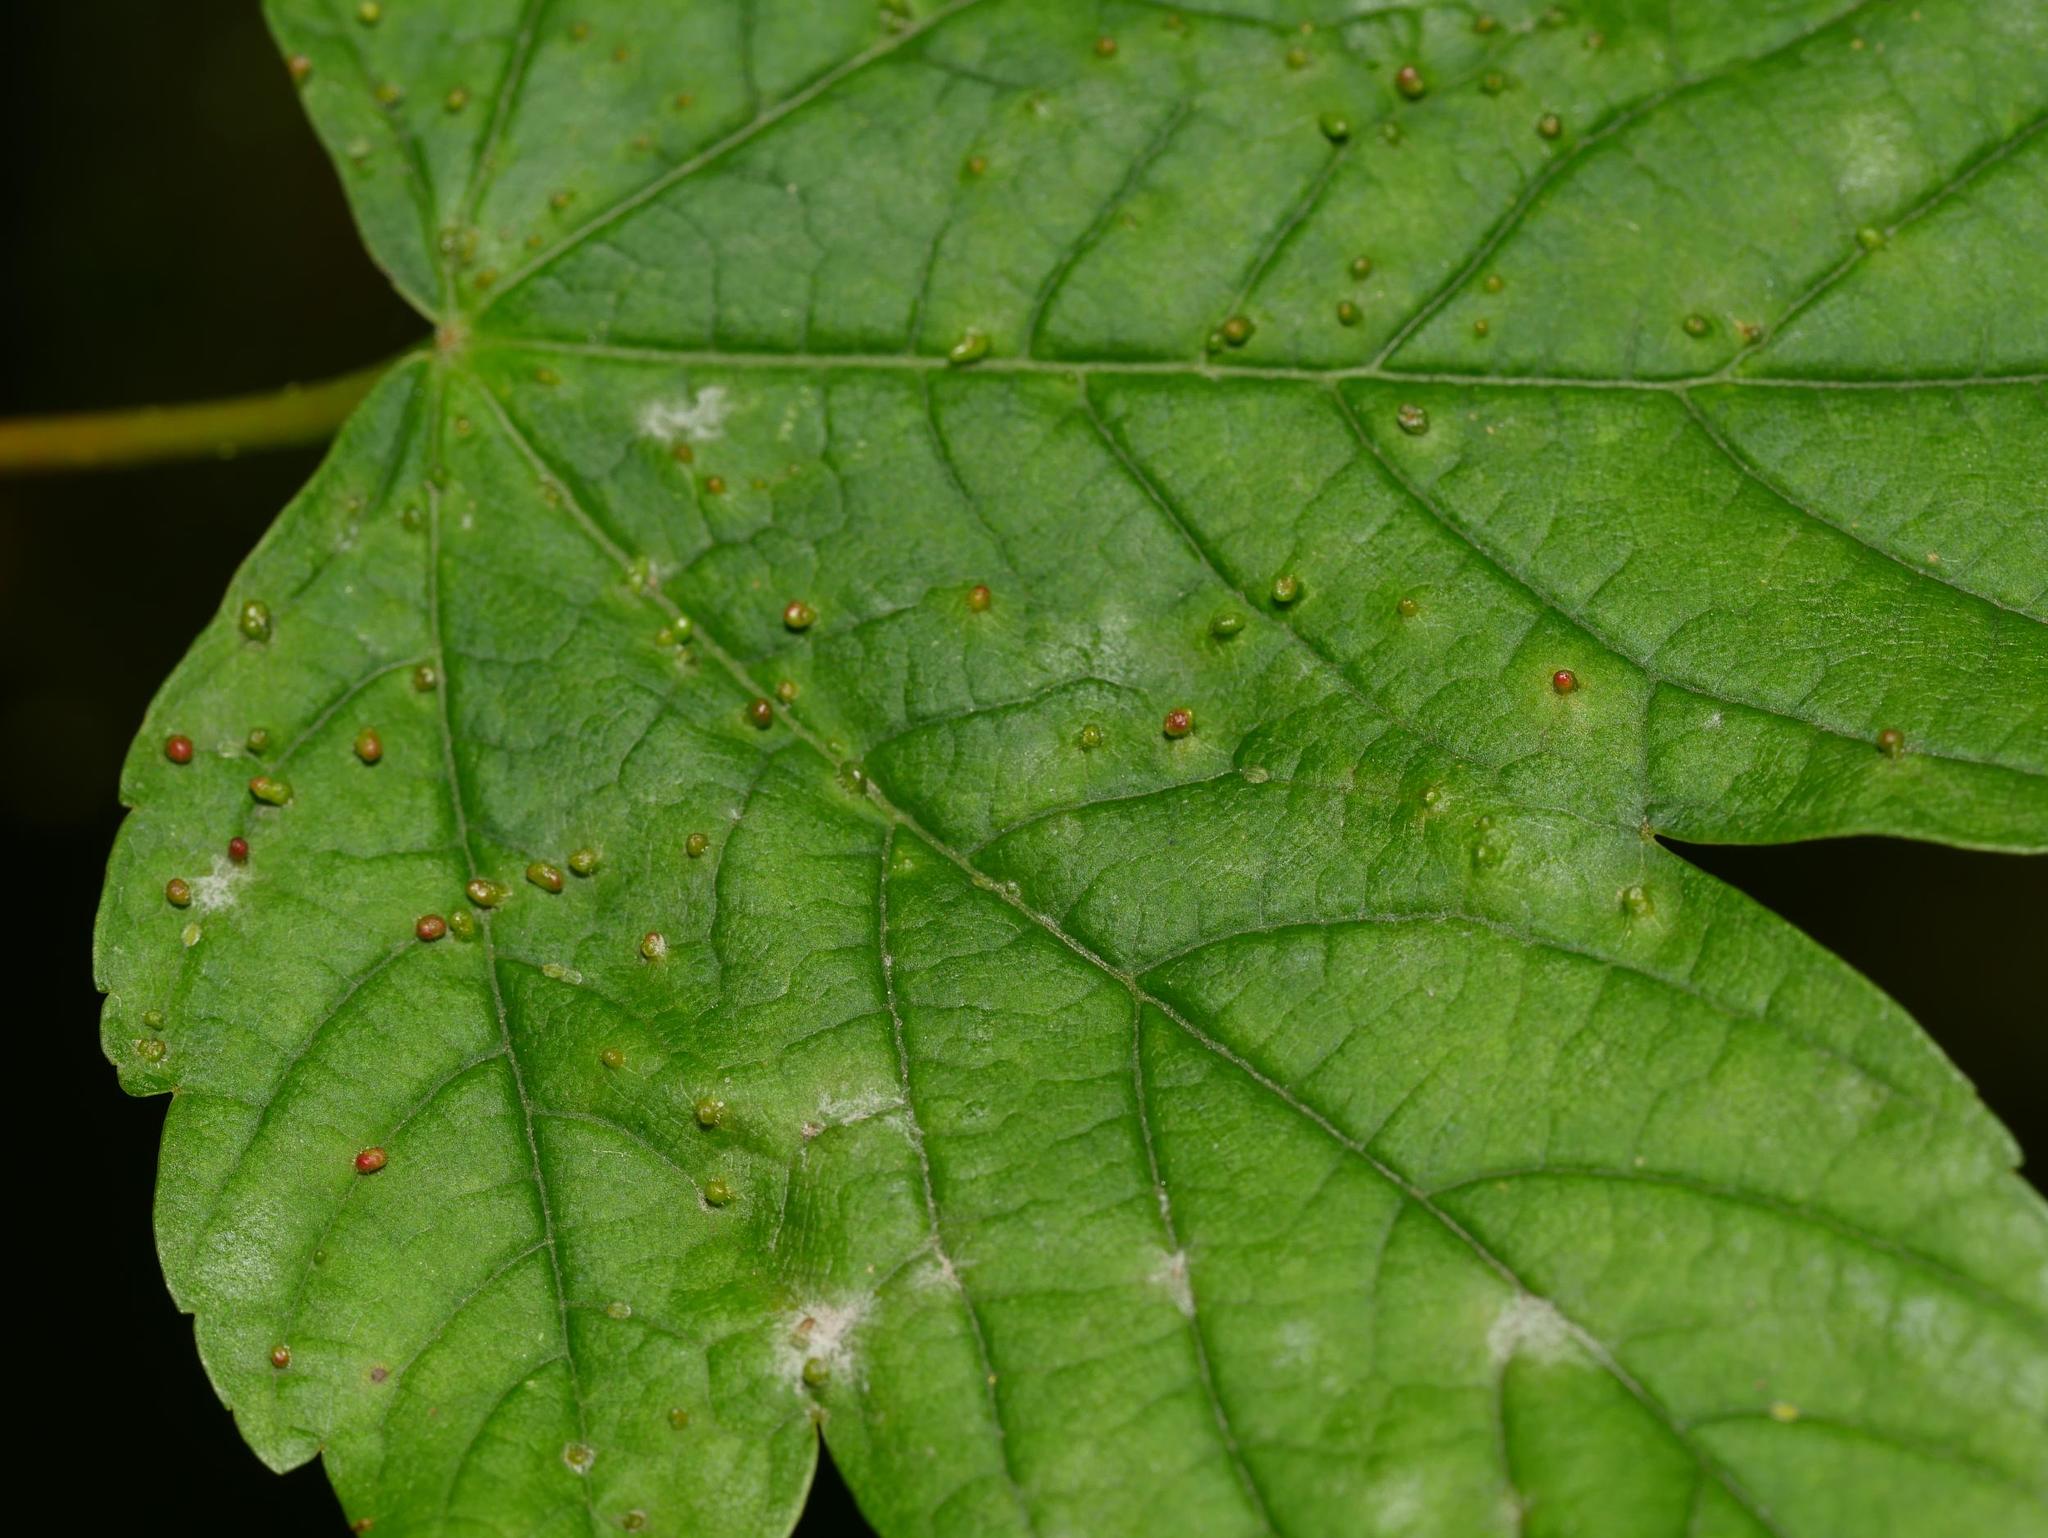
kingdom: Animalia
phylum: Arthropoda
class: Arachnida
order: Trombidiformes
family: Eriophyidae
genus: Aceria
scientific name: Aceria cephaloneus
